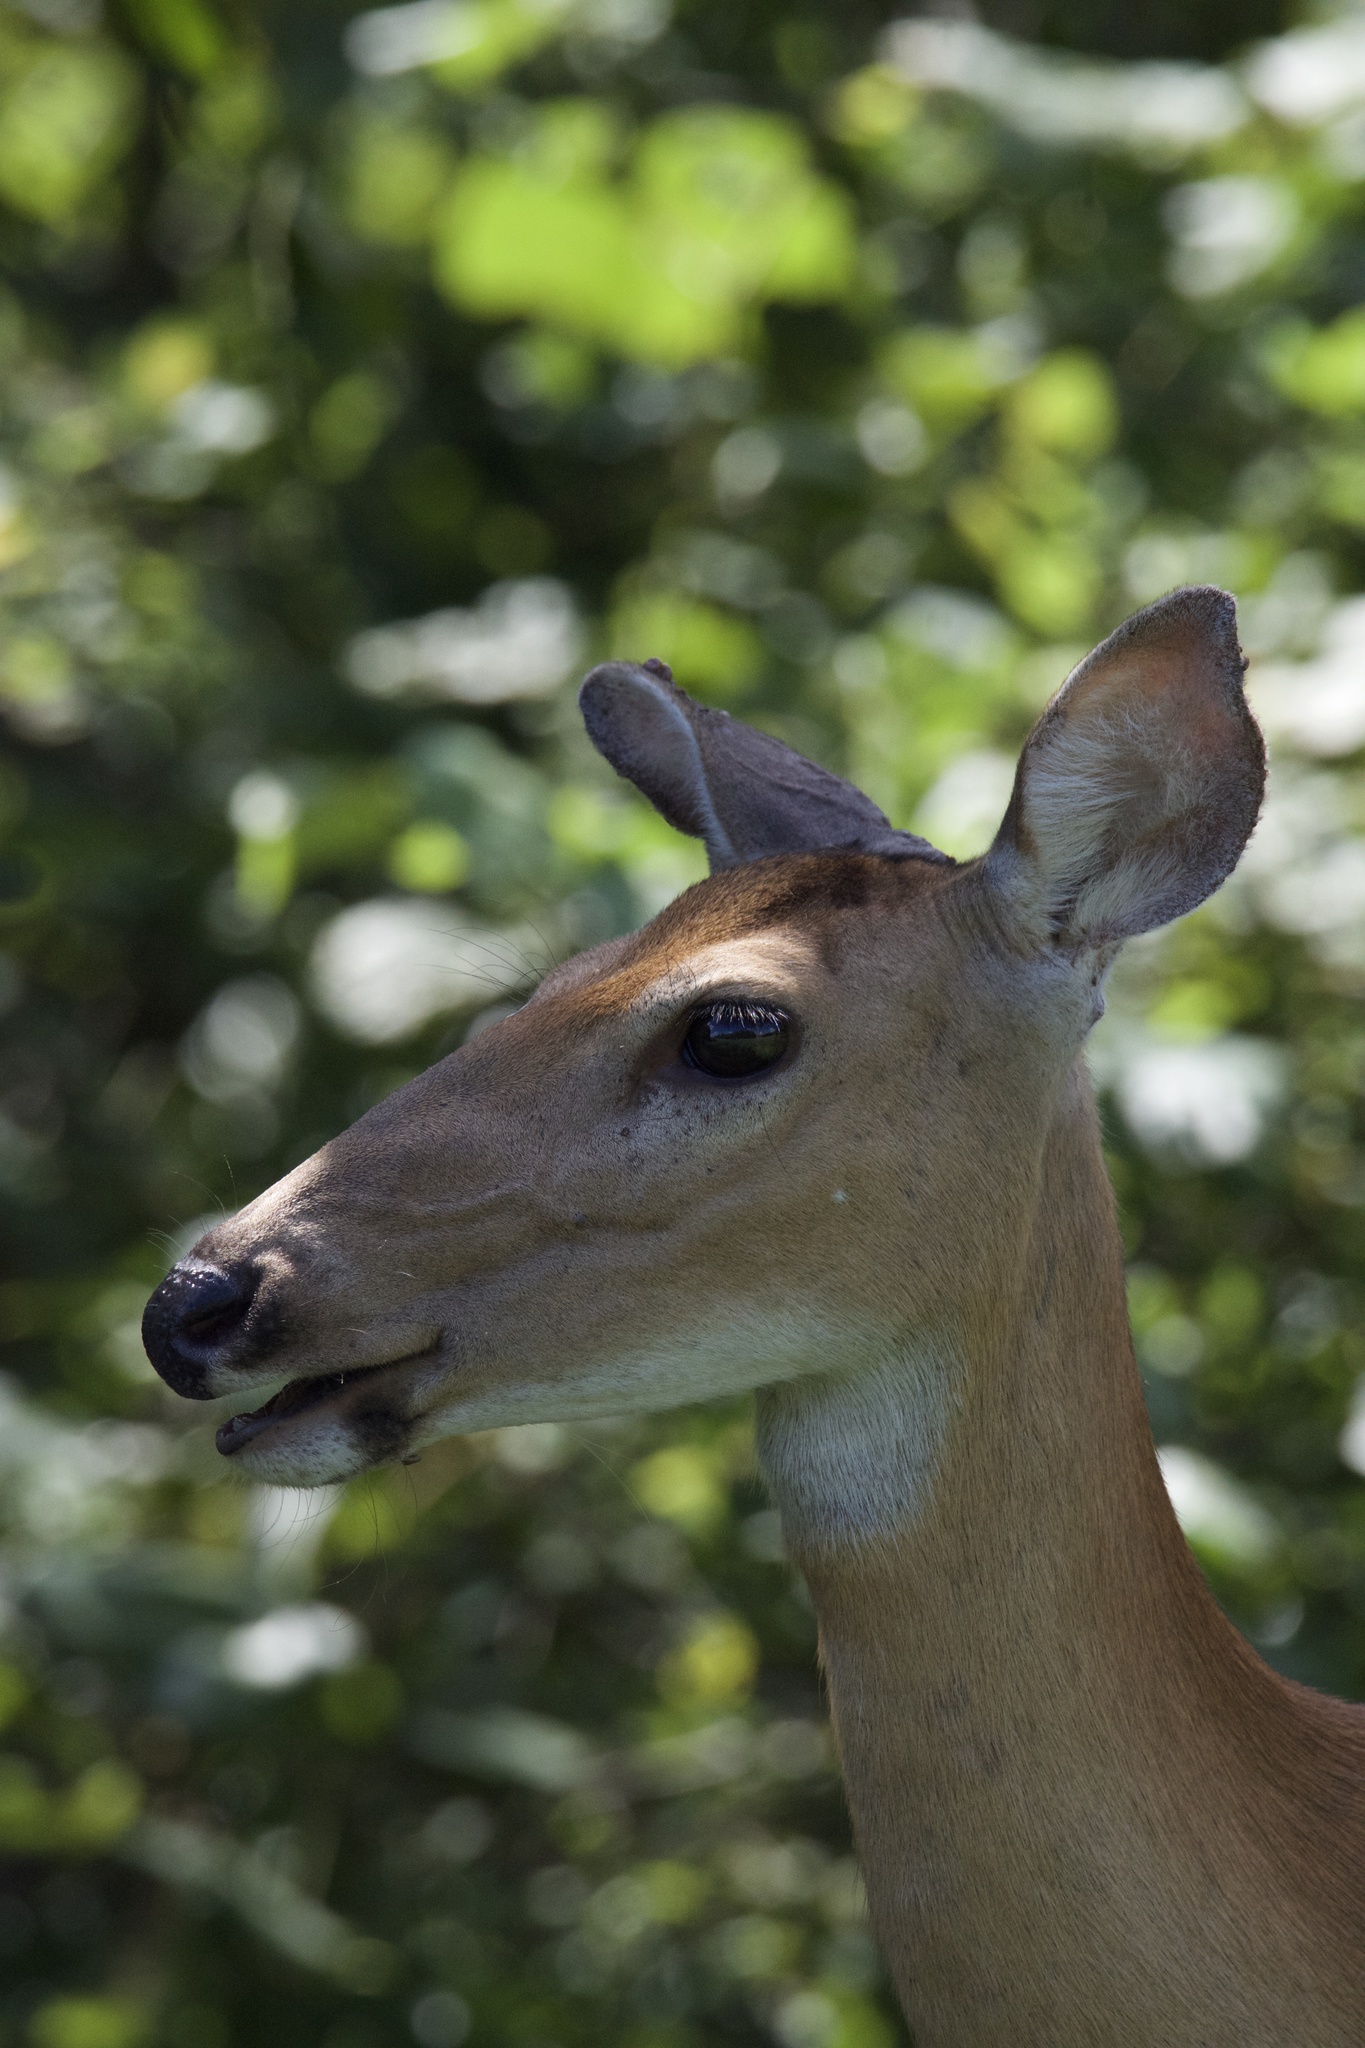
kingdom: Animalia
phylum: Chordata
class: Mammalia
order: Artiodactyla
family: Cervidae
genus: Odocoileus
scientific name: Odocoileus virginianus
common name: White-tailed deer
